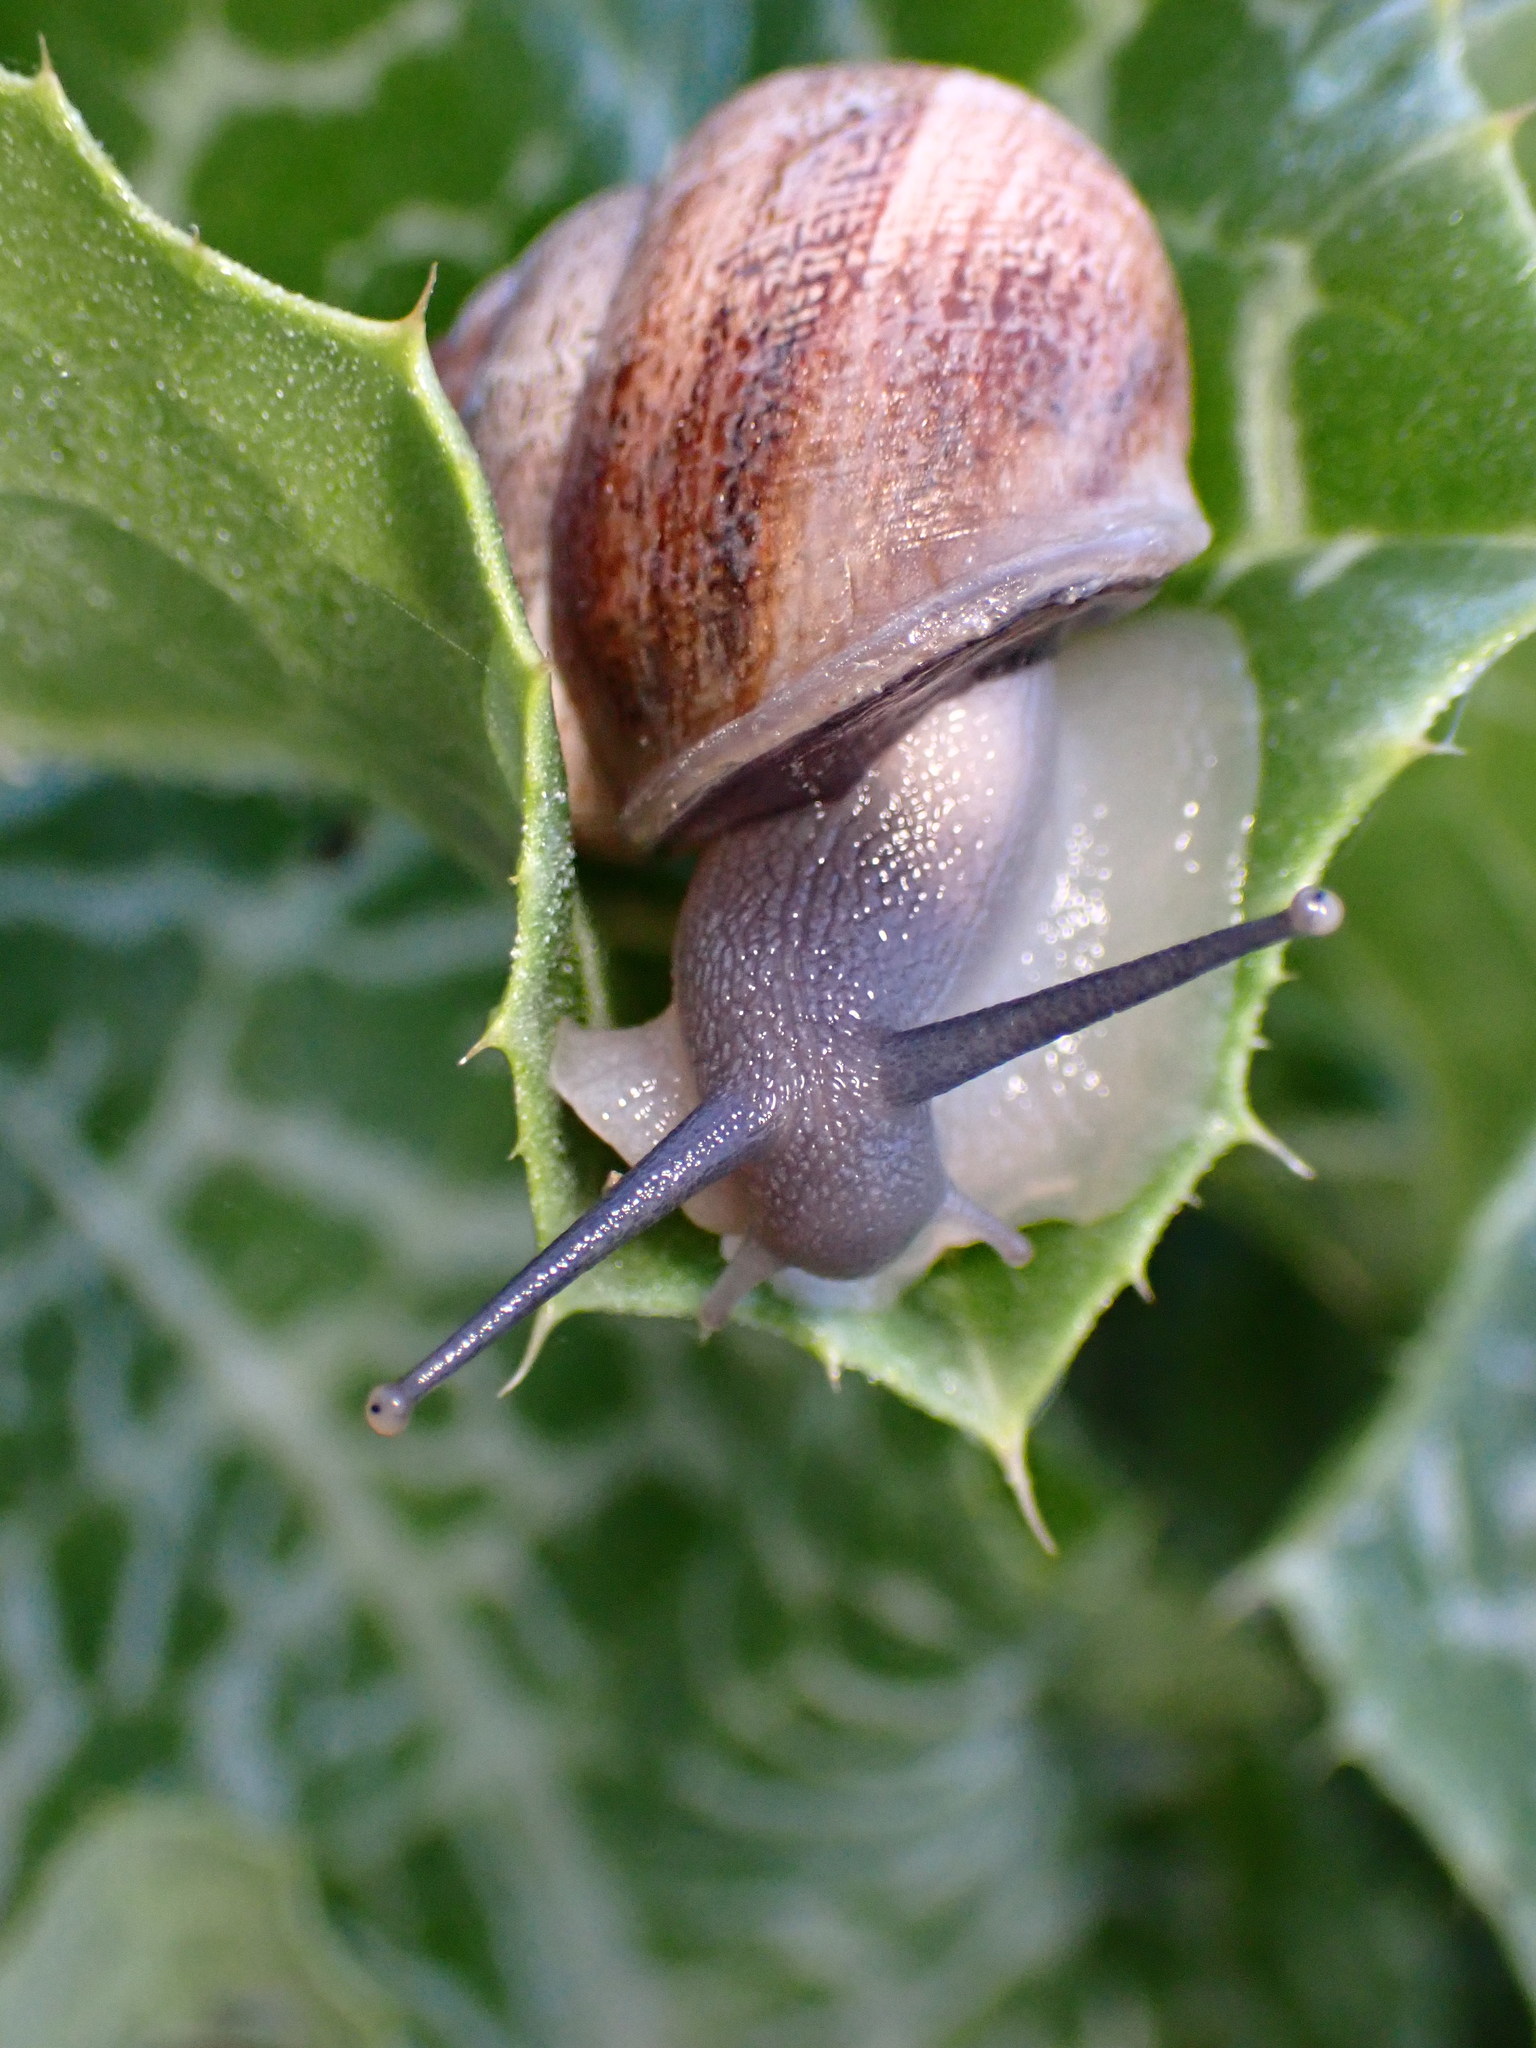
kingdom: Animalia
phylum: Mollusca
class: Gastropoda
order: Stylommatophora
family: Helicidae
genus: Otala
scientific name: Otala lactea
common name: Milk snail
